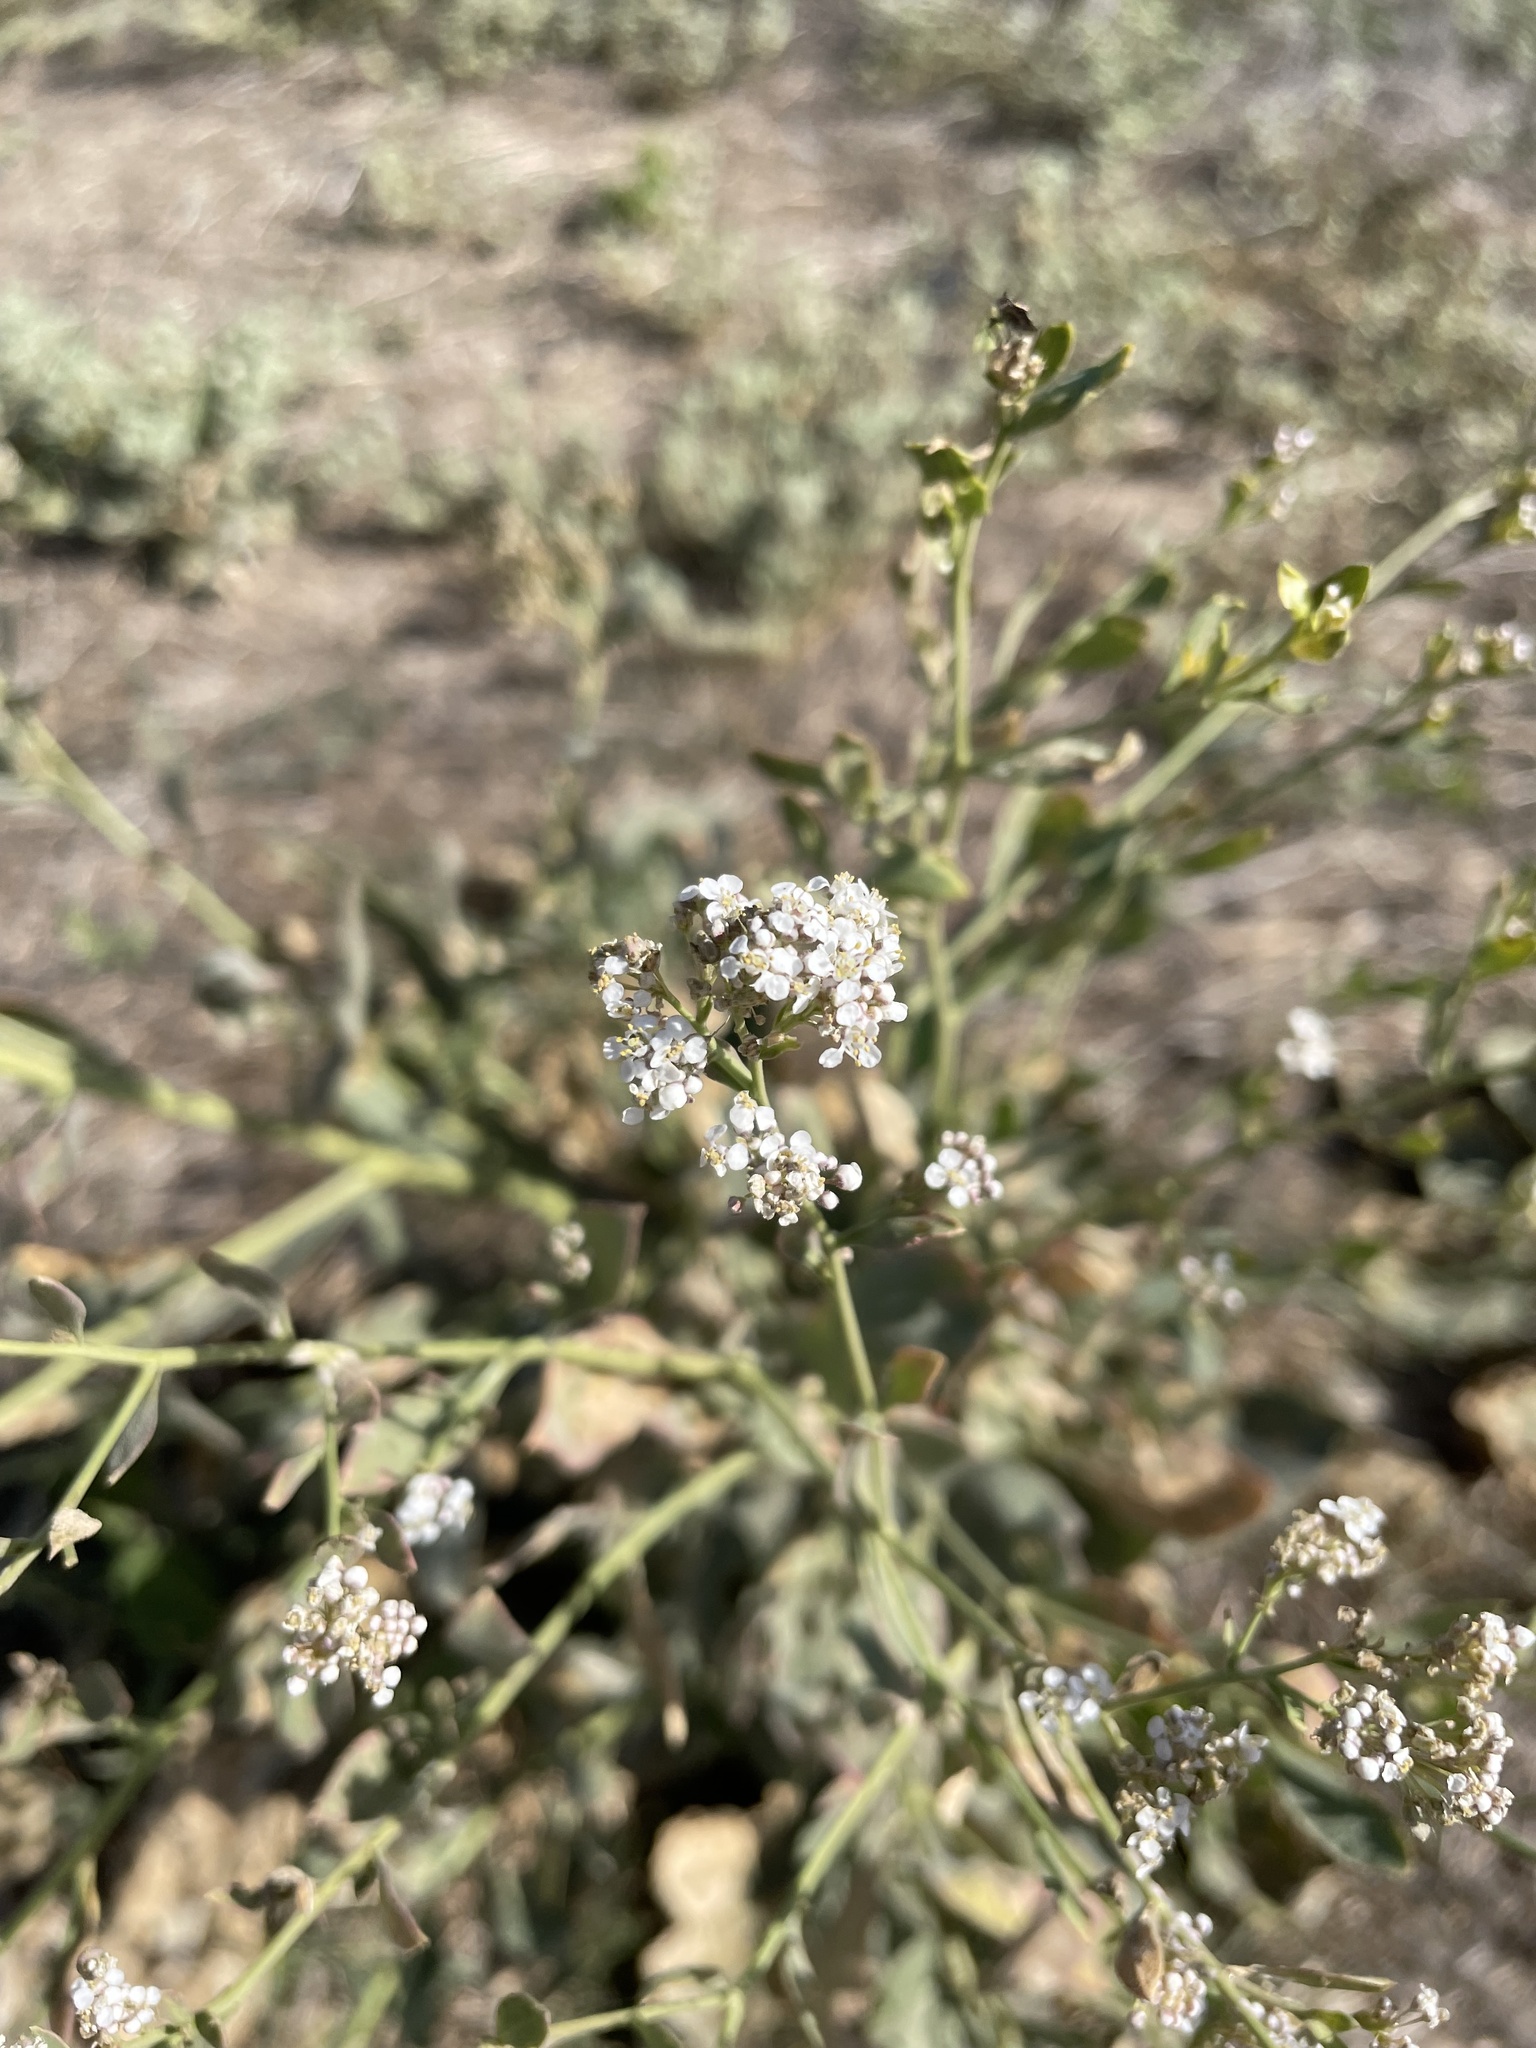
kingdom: Plantae
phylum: Tracheophyta
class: Magnoliopsida
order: Brassicales
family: Brassicaceae
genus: Lepidium
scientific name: Lepidium latifolium
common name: Dittander
